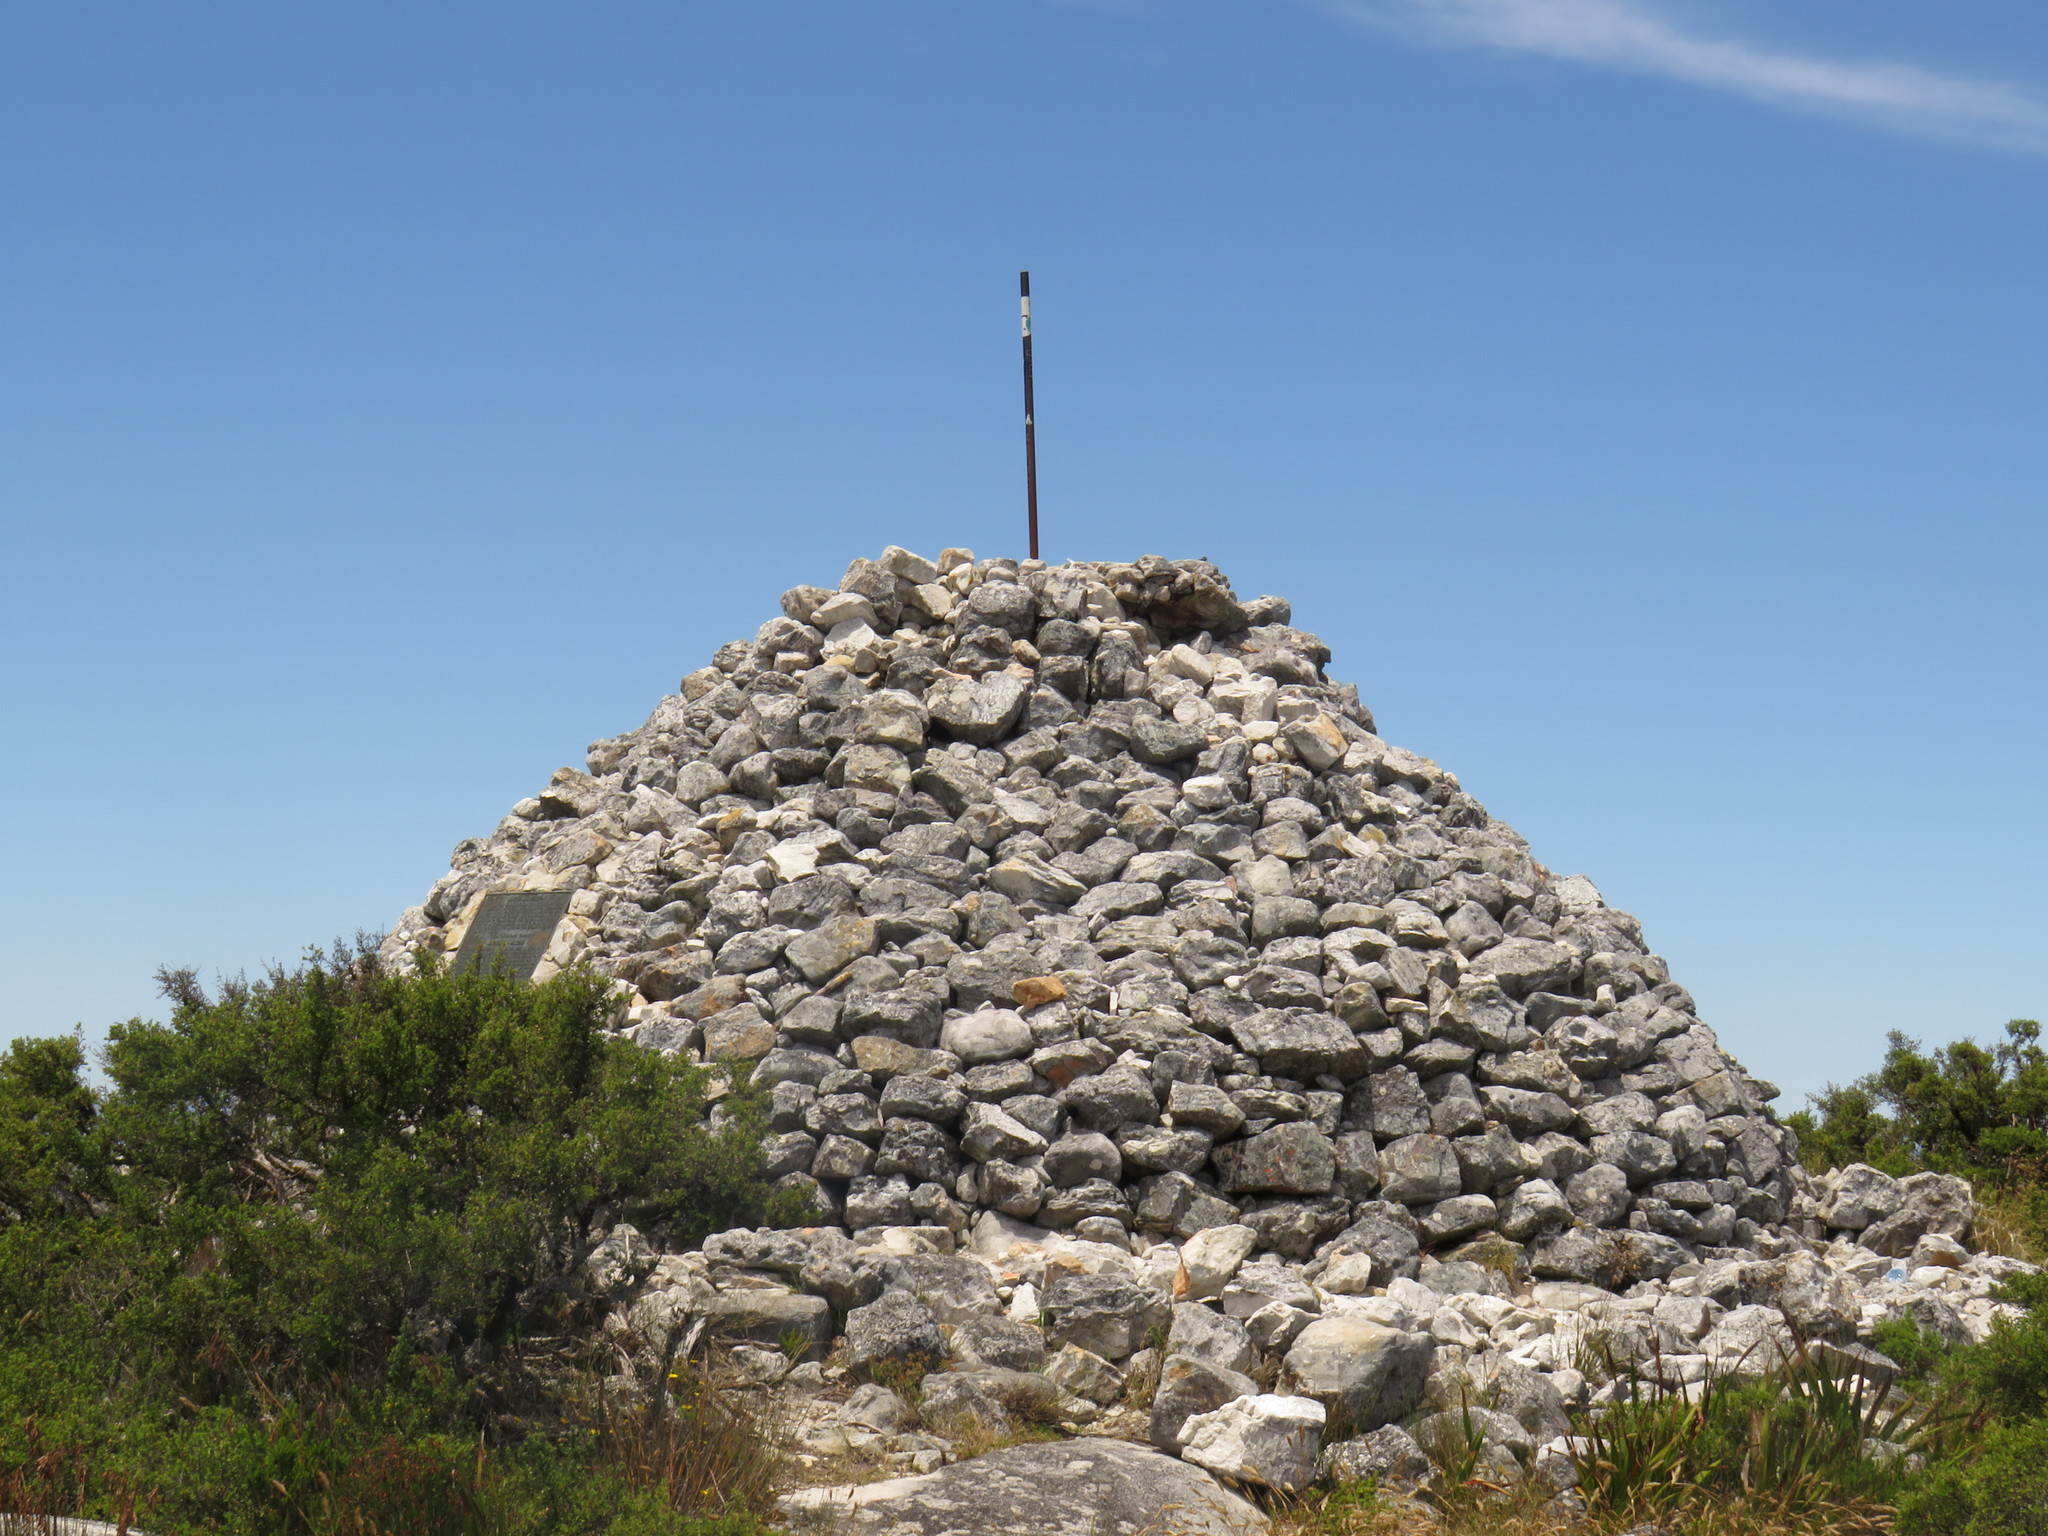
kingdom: Plantae
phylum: Tracheophyta
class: Magnoliopsida
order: Rosales
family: Rosaceae
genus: Cliffortia
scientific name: Cliffortia tridentata
